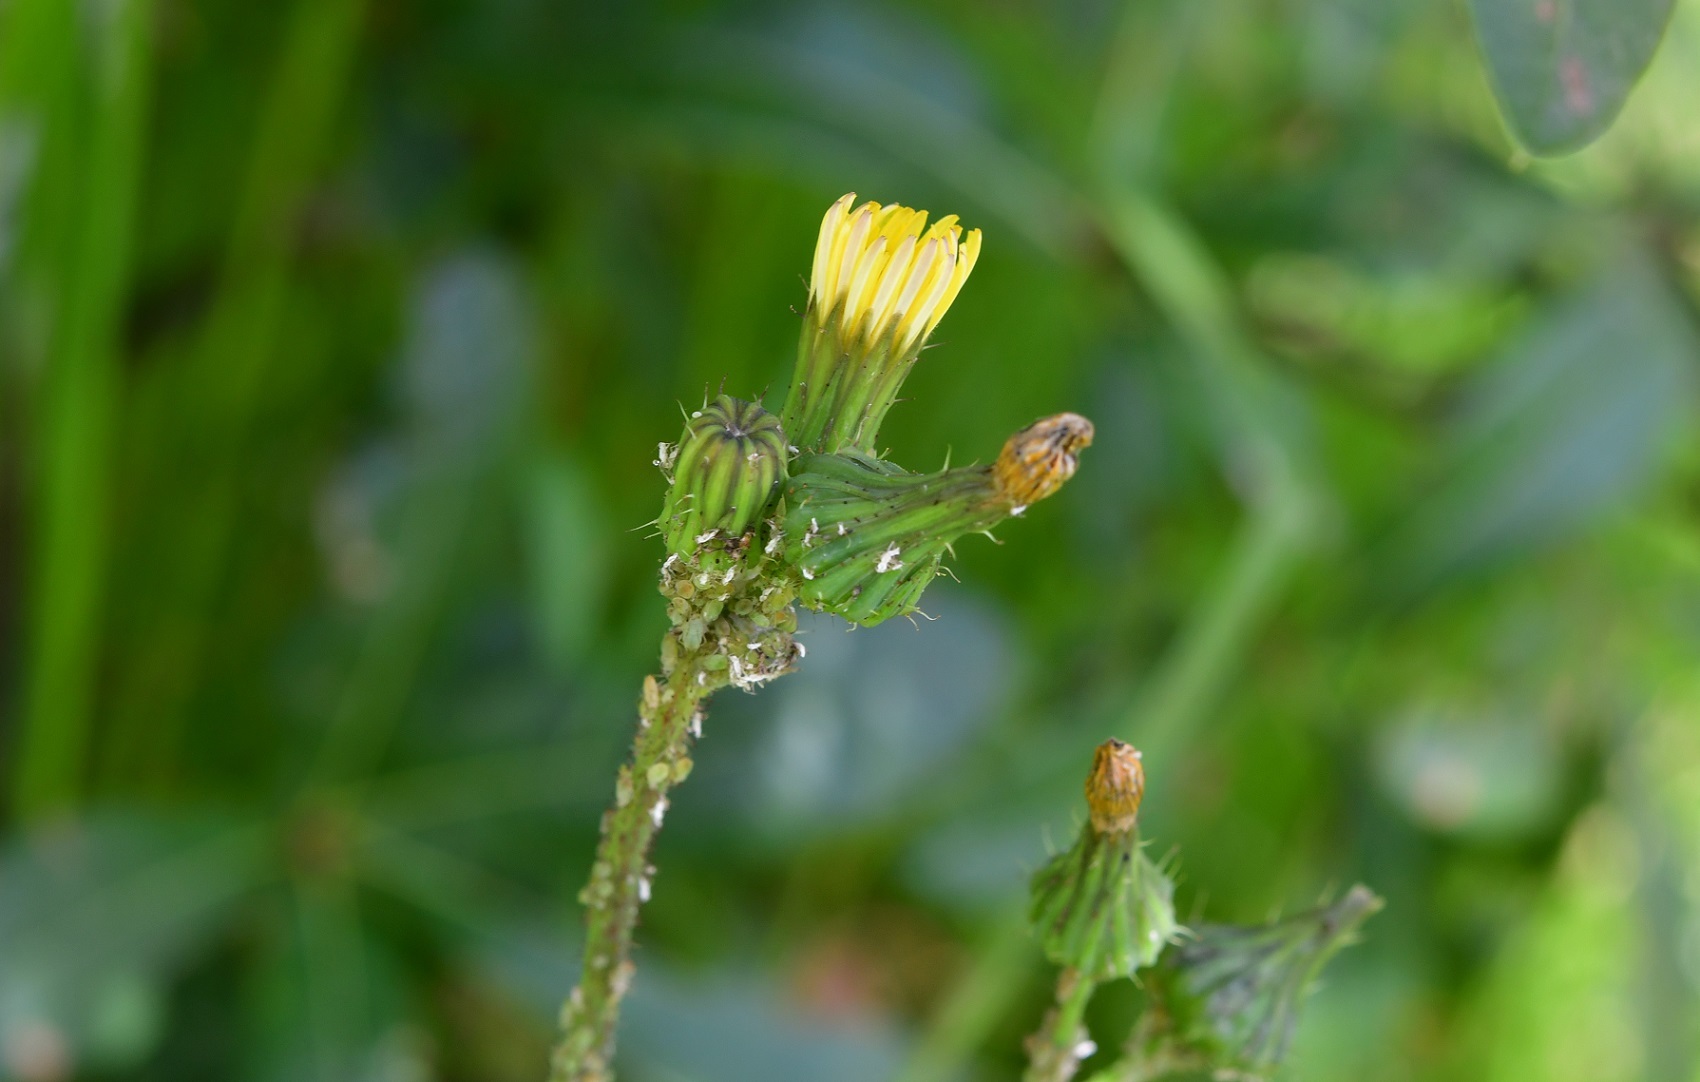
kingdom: Plantae
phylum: Tracheophyta
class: Magnoliopsida
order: Asterales
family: Asteraceae
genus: Sonchus
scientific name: Sonchus oleraceus
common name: Common sowthistle
